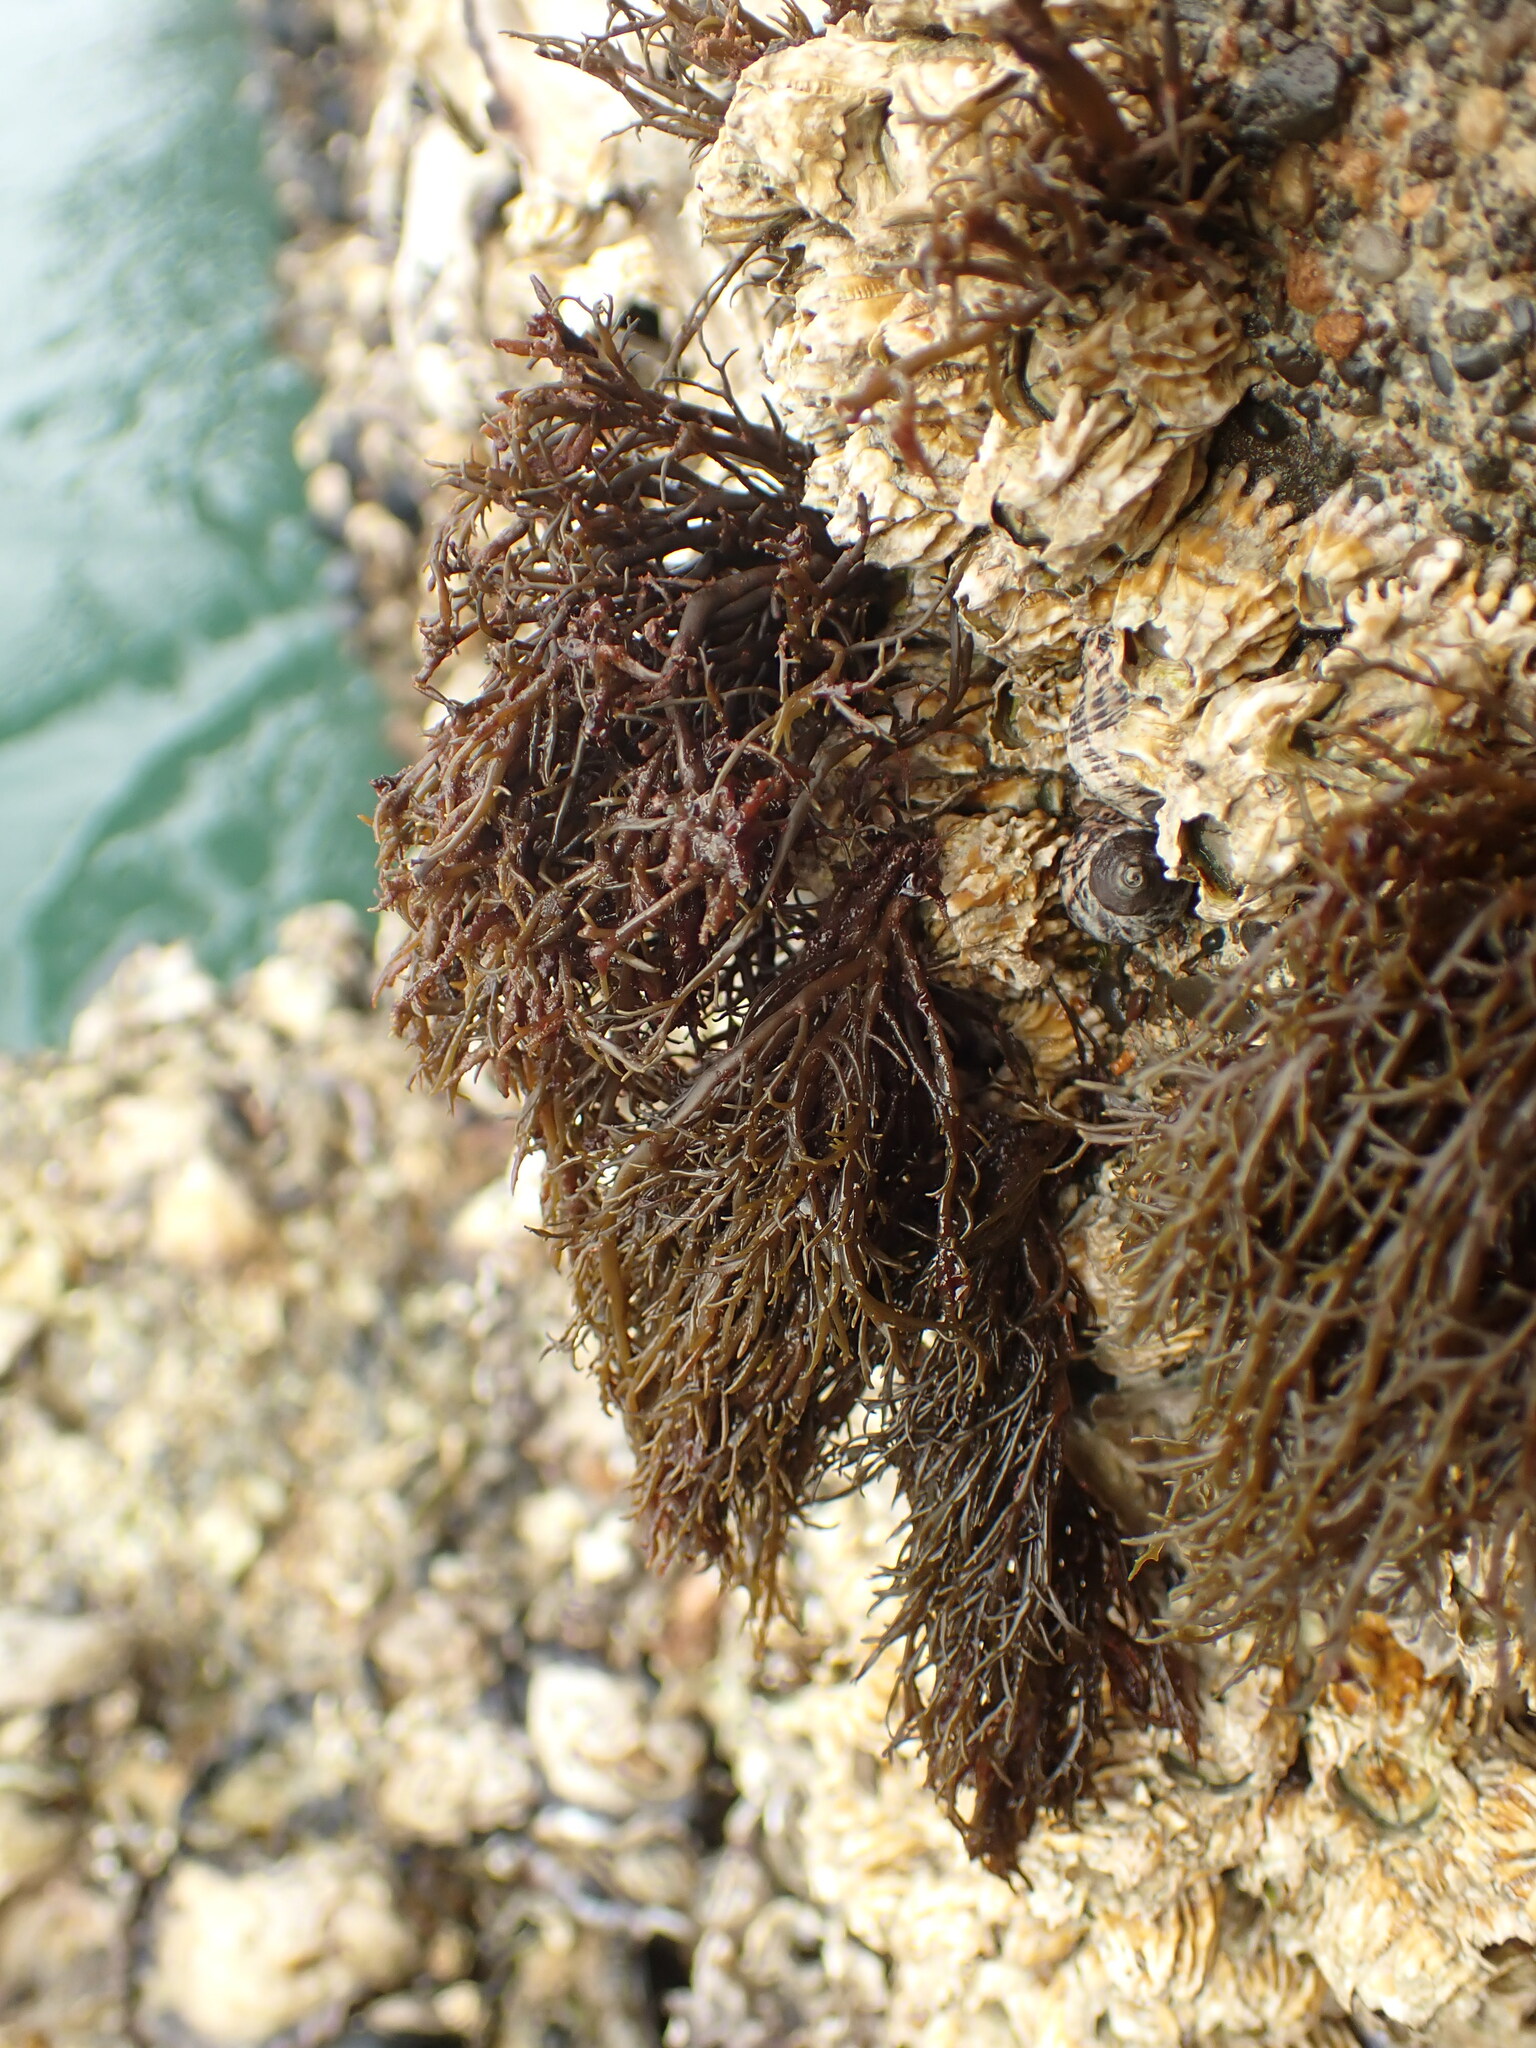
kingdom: Chromista
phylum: Ochrophyta
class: Phaeophyceae
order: Scytothamnales
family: Scytothamnaceae
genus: Scytothamnus
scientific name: Scytothamnus australis
